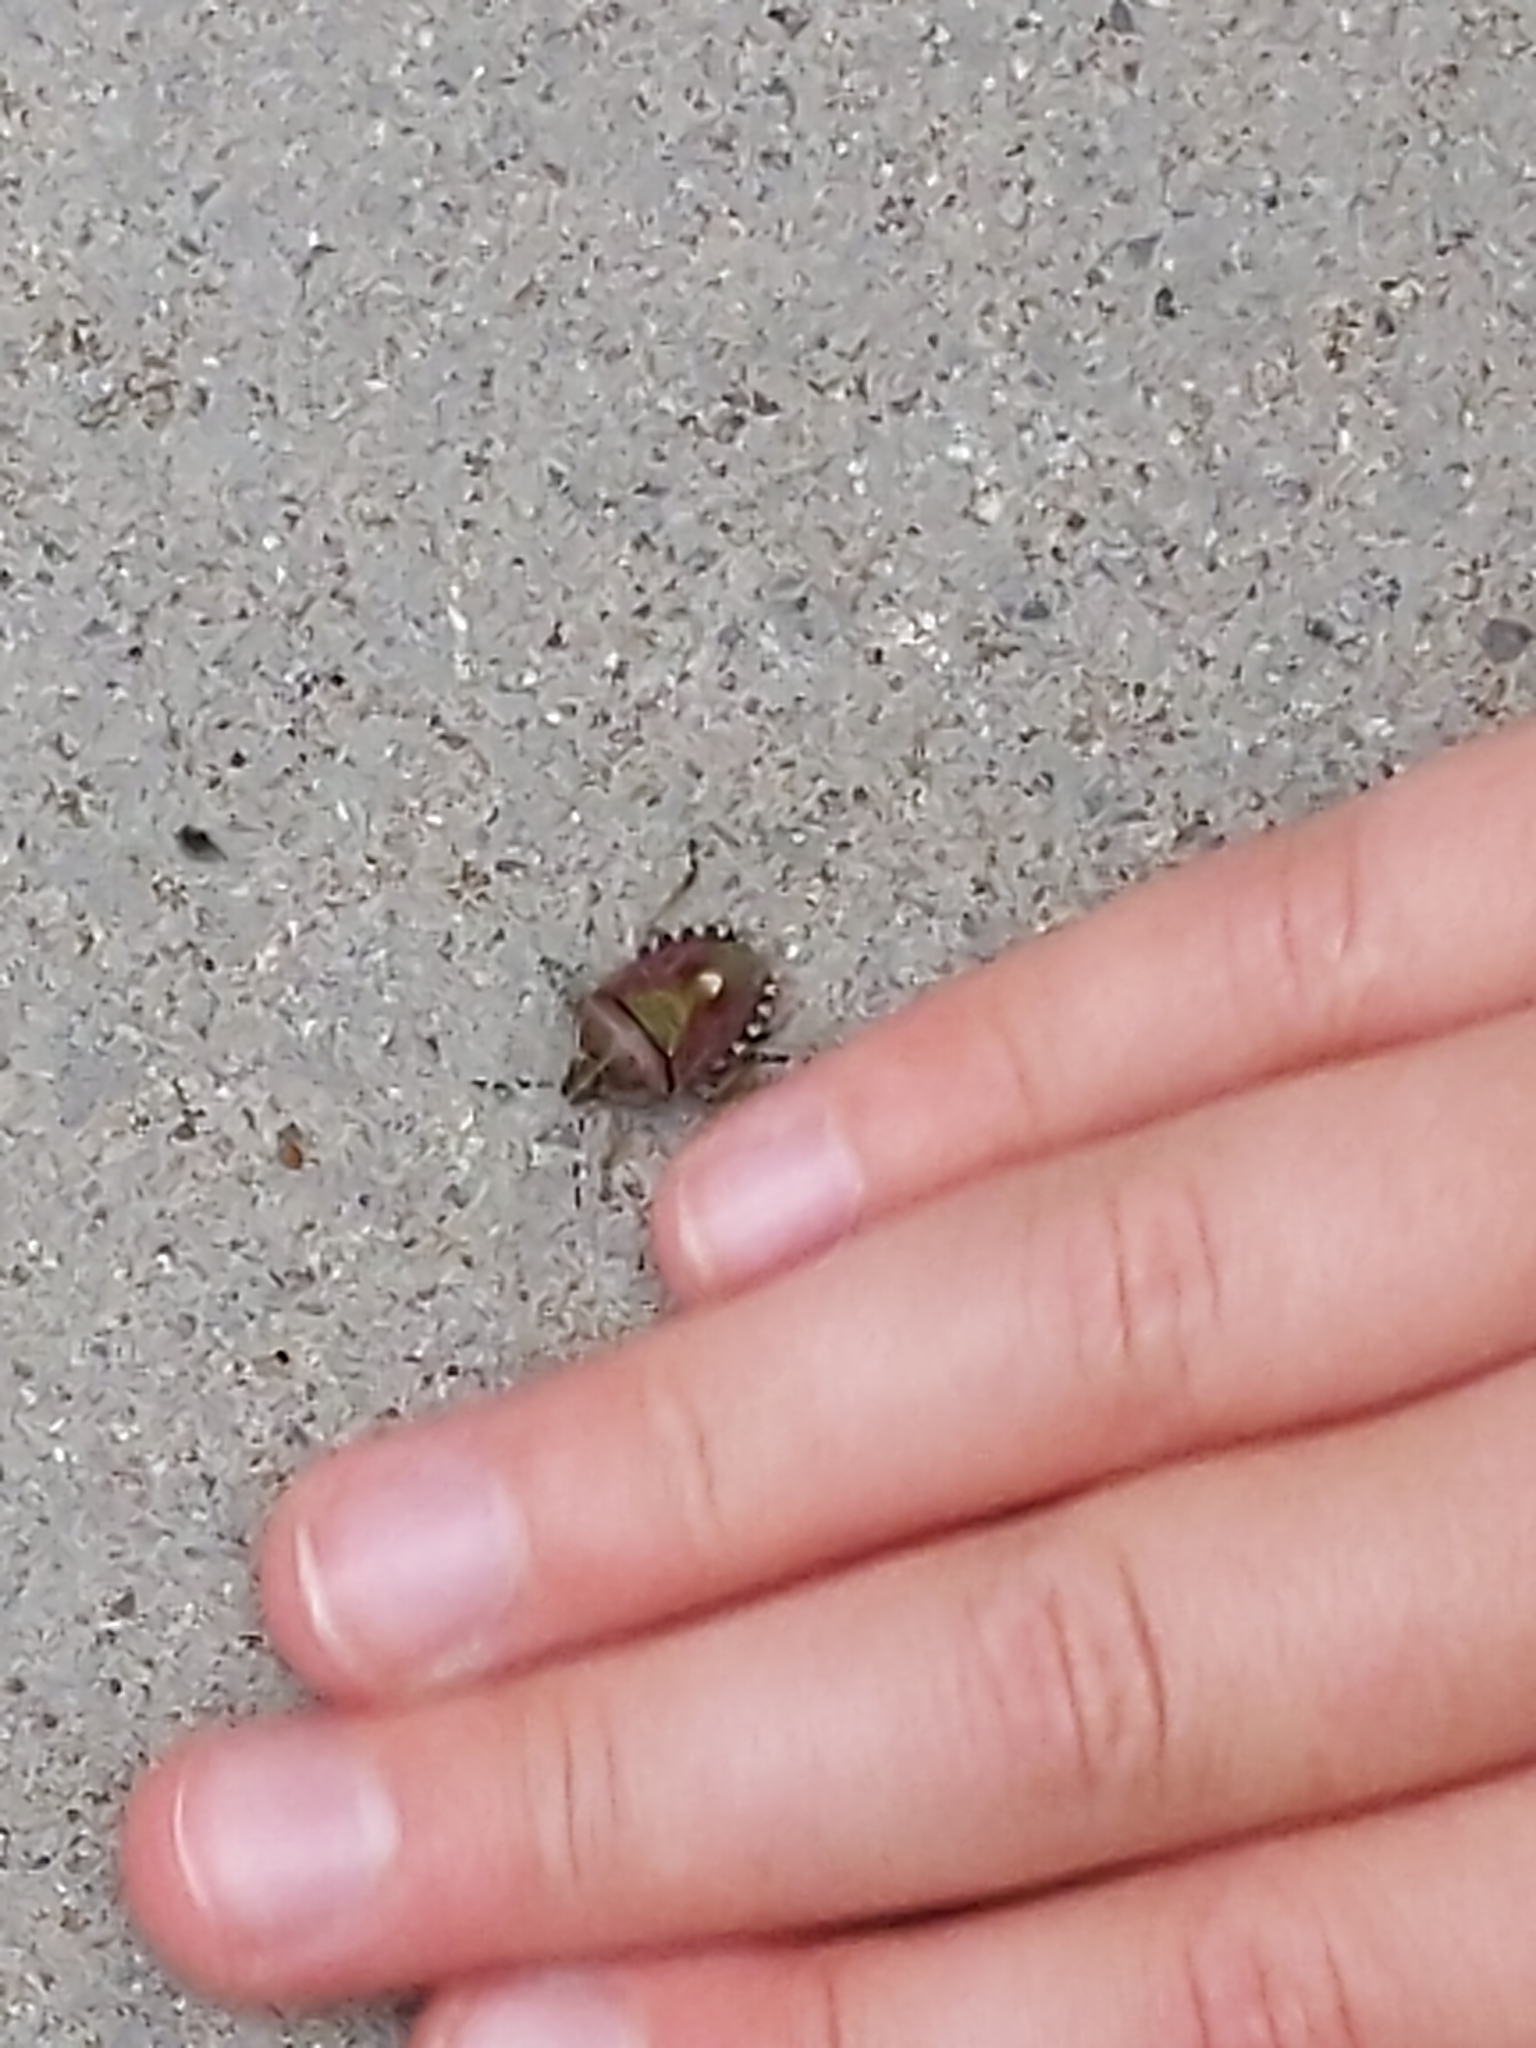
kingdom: Animalia
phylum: Arthropoda
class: Insecta
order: Hemiptera
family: Pentatomidae
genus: Dolycoris
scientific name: Dolycoris baccarum
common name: Sloe bug
